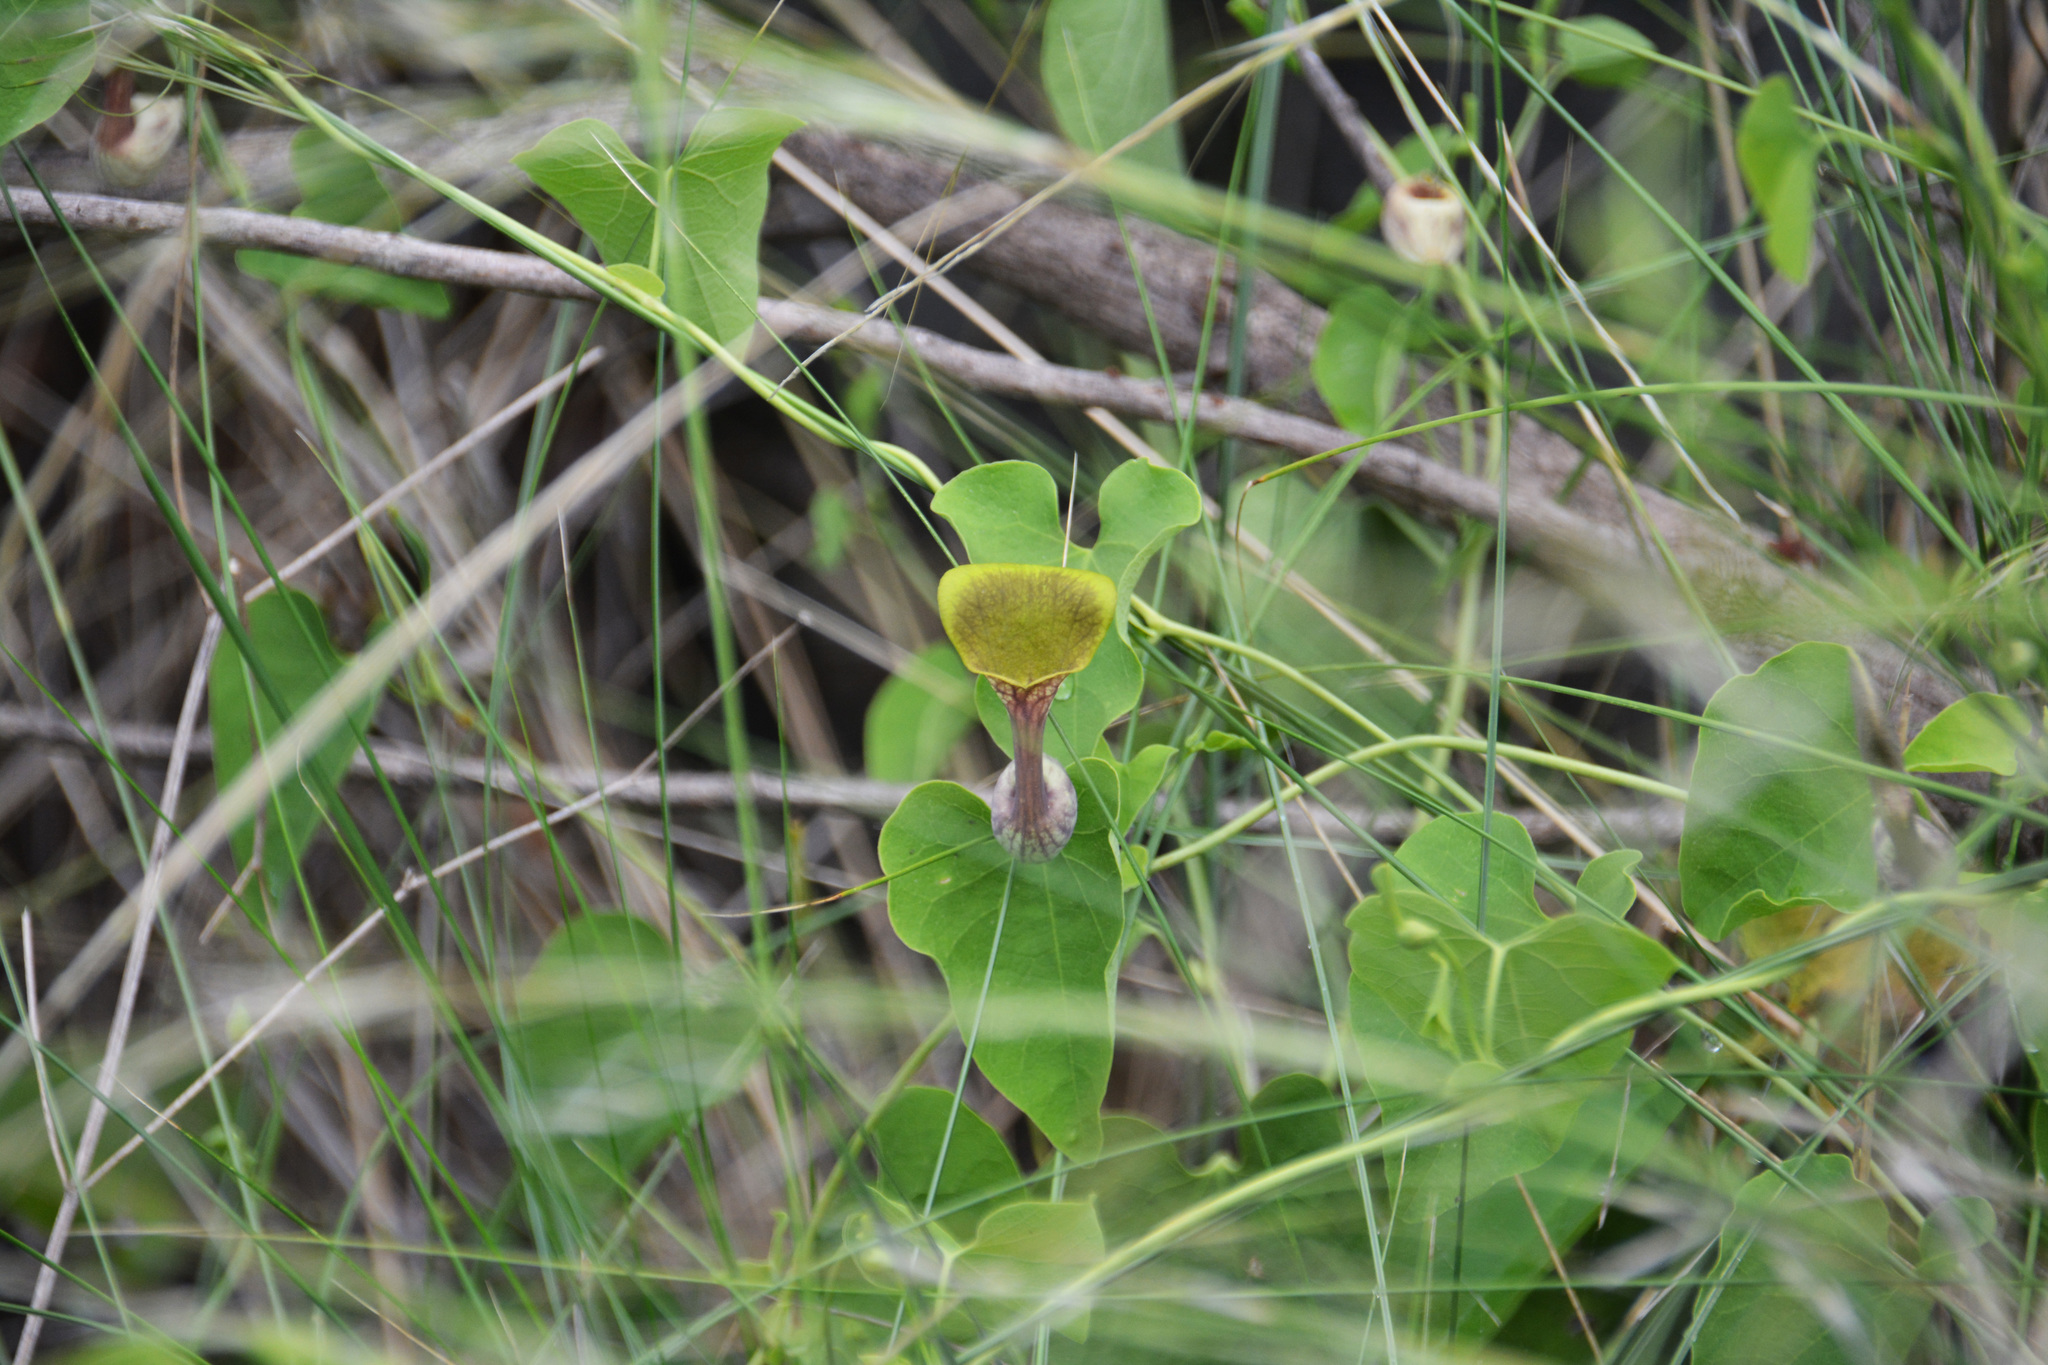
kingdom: Plantae
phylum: Tracheophyta
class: Magnoliopsida
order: Piperales
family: Aristolochiaceae
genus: Aristolochia
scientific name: Aristolochia argentina
